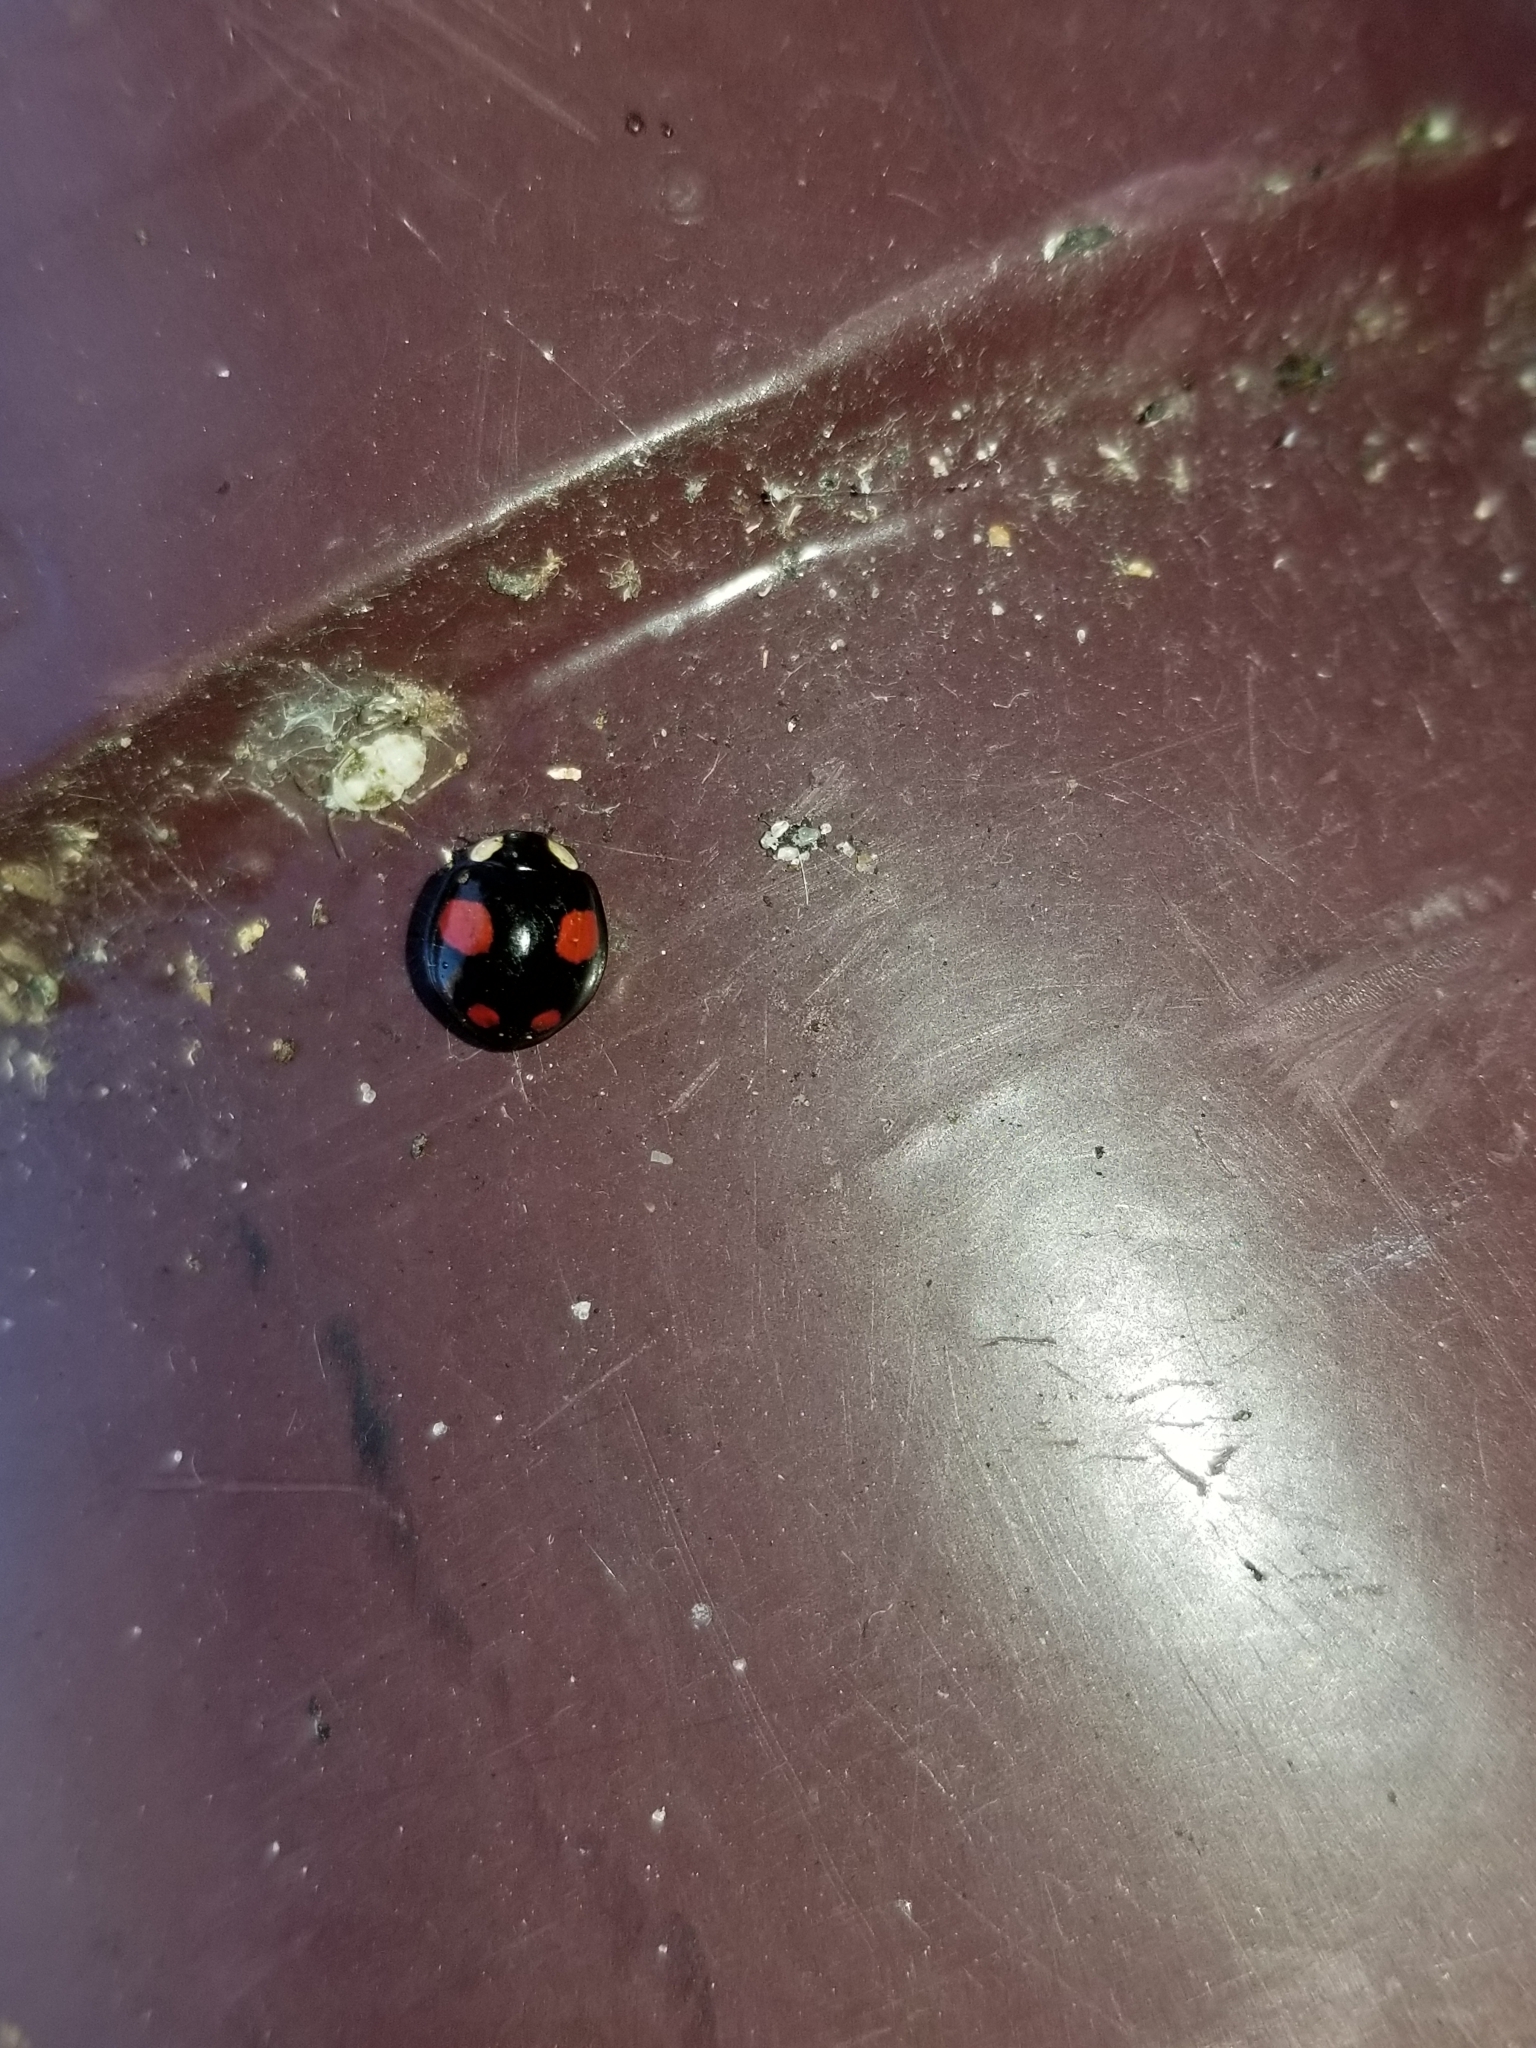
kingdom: Animalia
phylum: Arthropoda
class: Insecta
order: Coleoptera
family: Coccinellidae
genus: Harmonia
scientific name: Harmonia axyridis
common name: Harlequin ladybird
